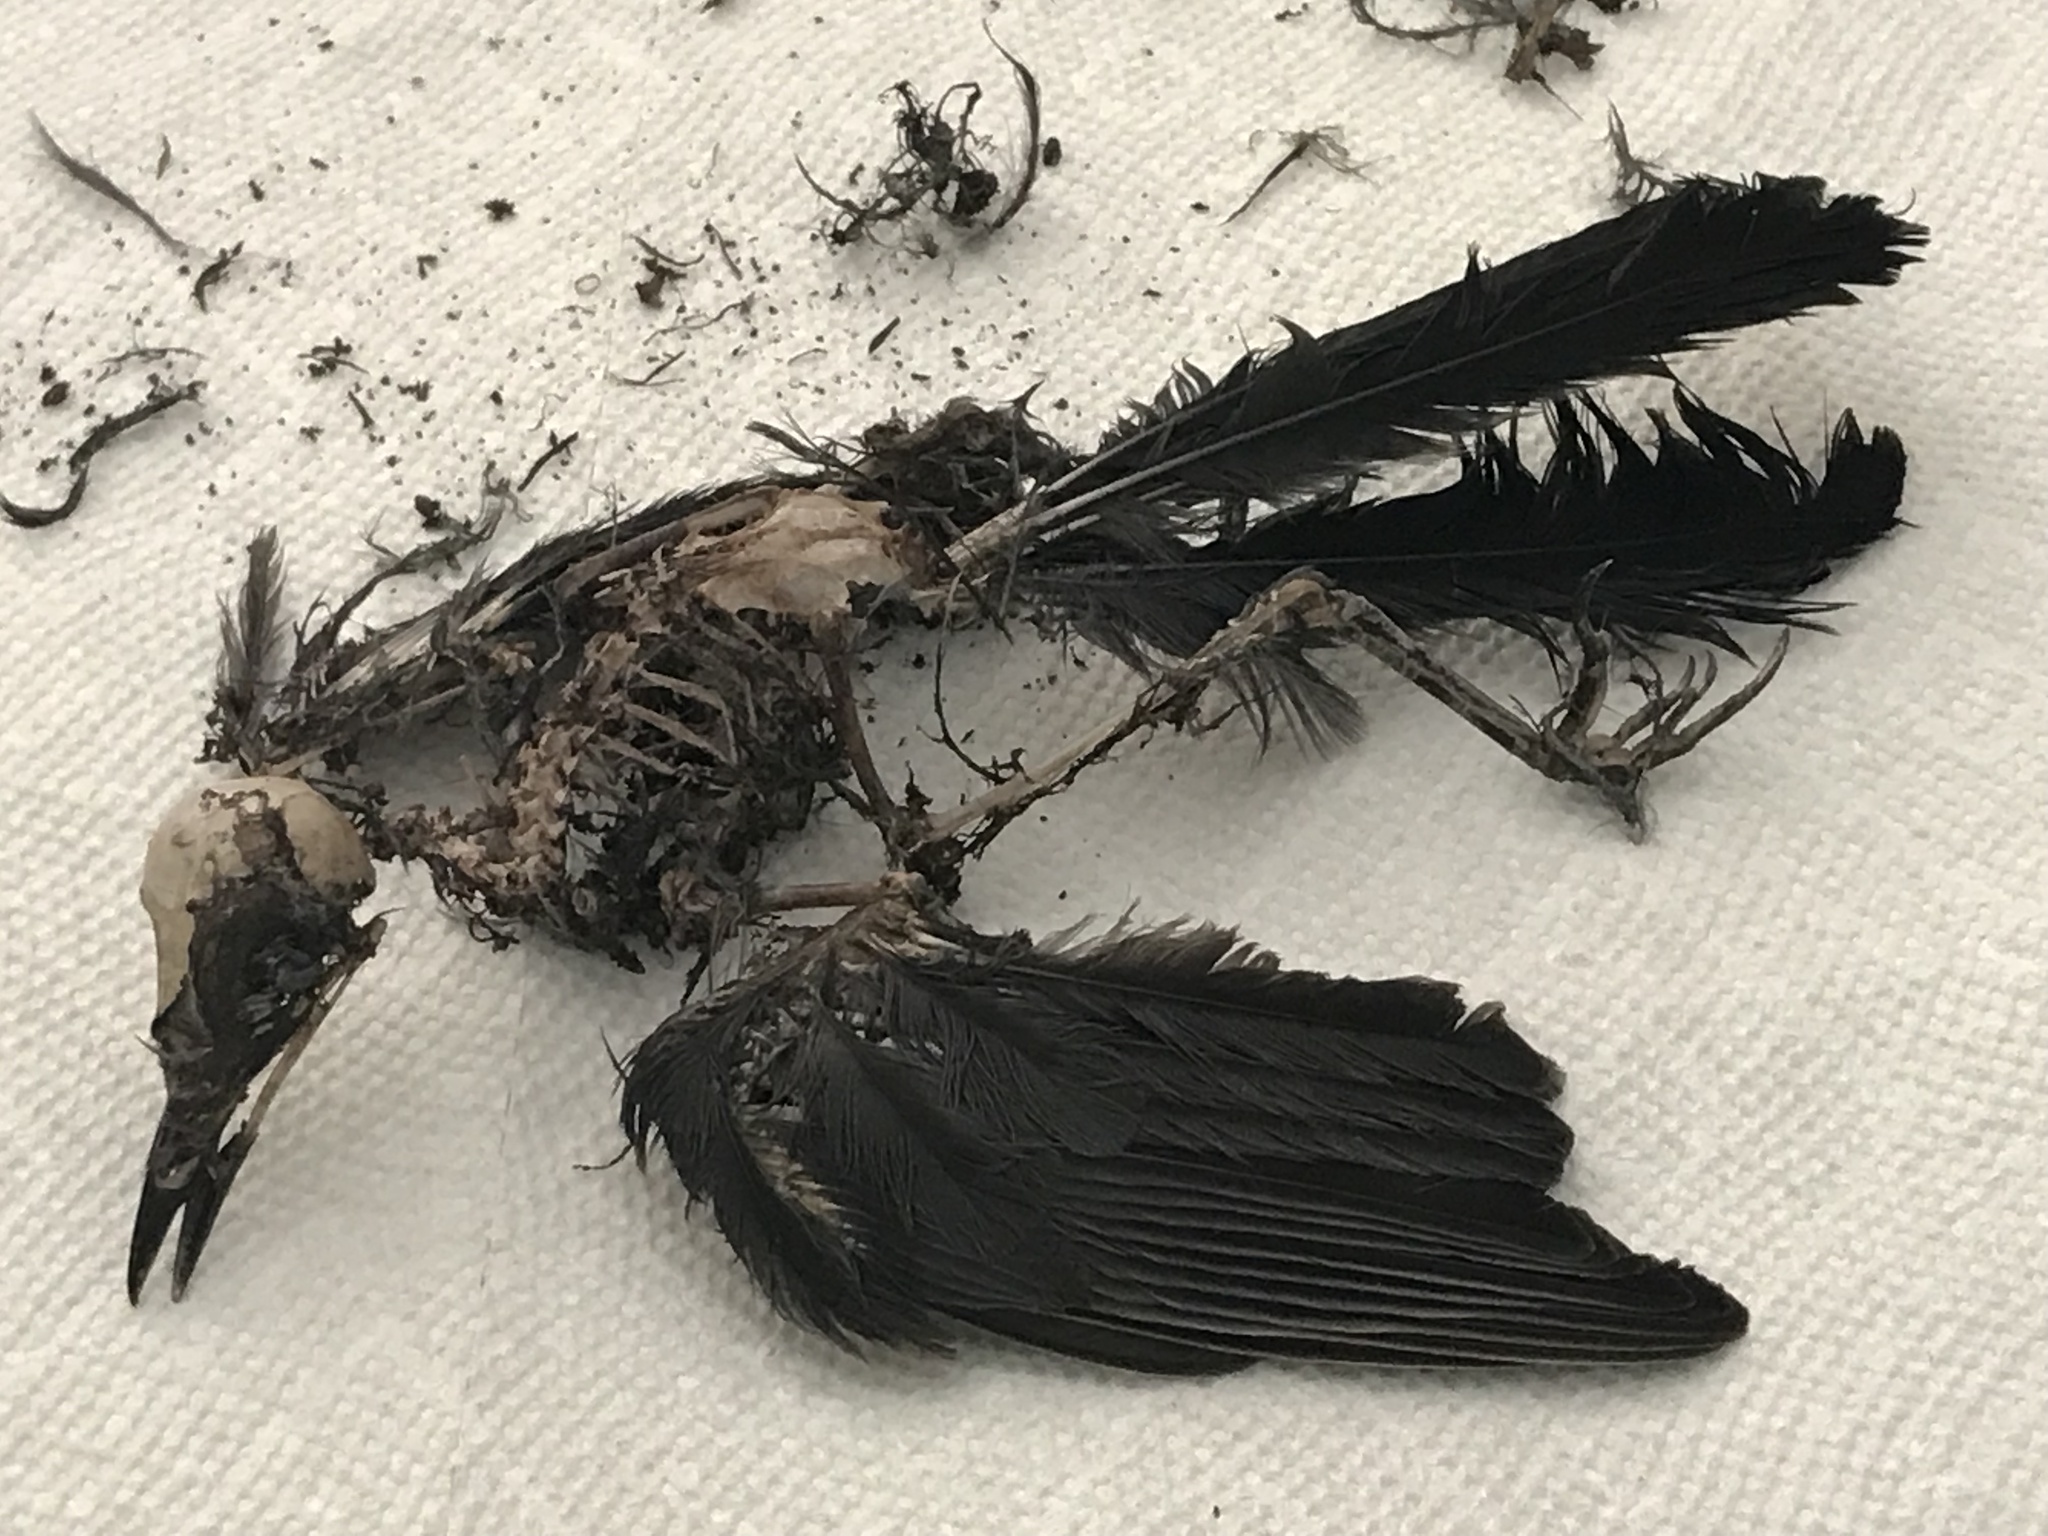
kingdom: Animalia
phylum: Chordata
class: Aves
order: Passeriformes
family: Mimidae
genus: Dumetella
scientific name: Dumetella carolinensis
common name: Gray catbird
